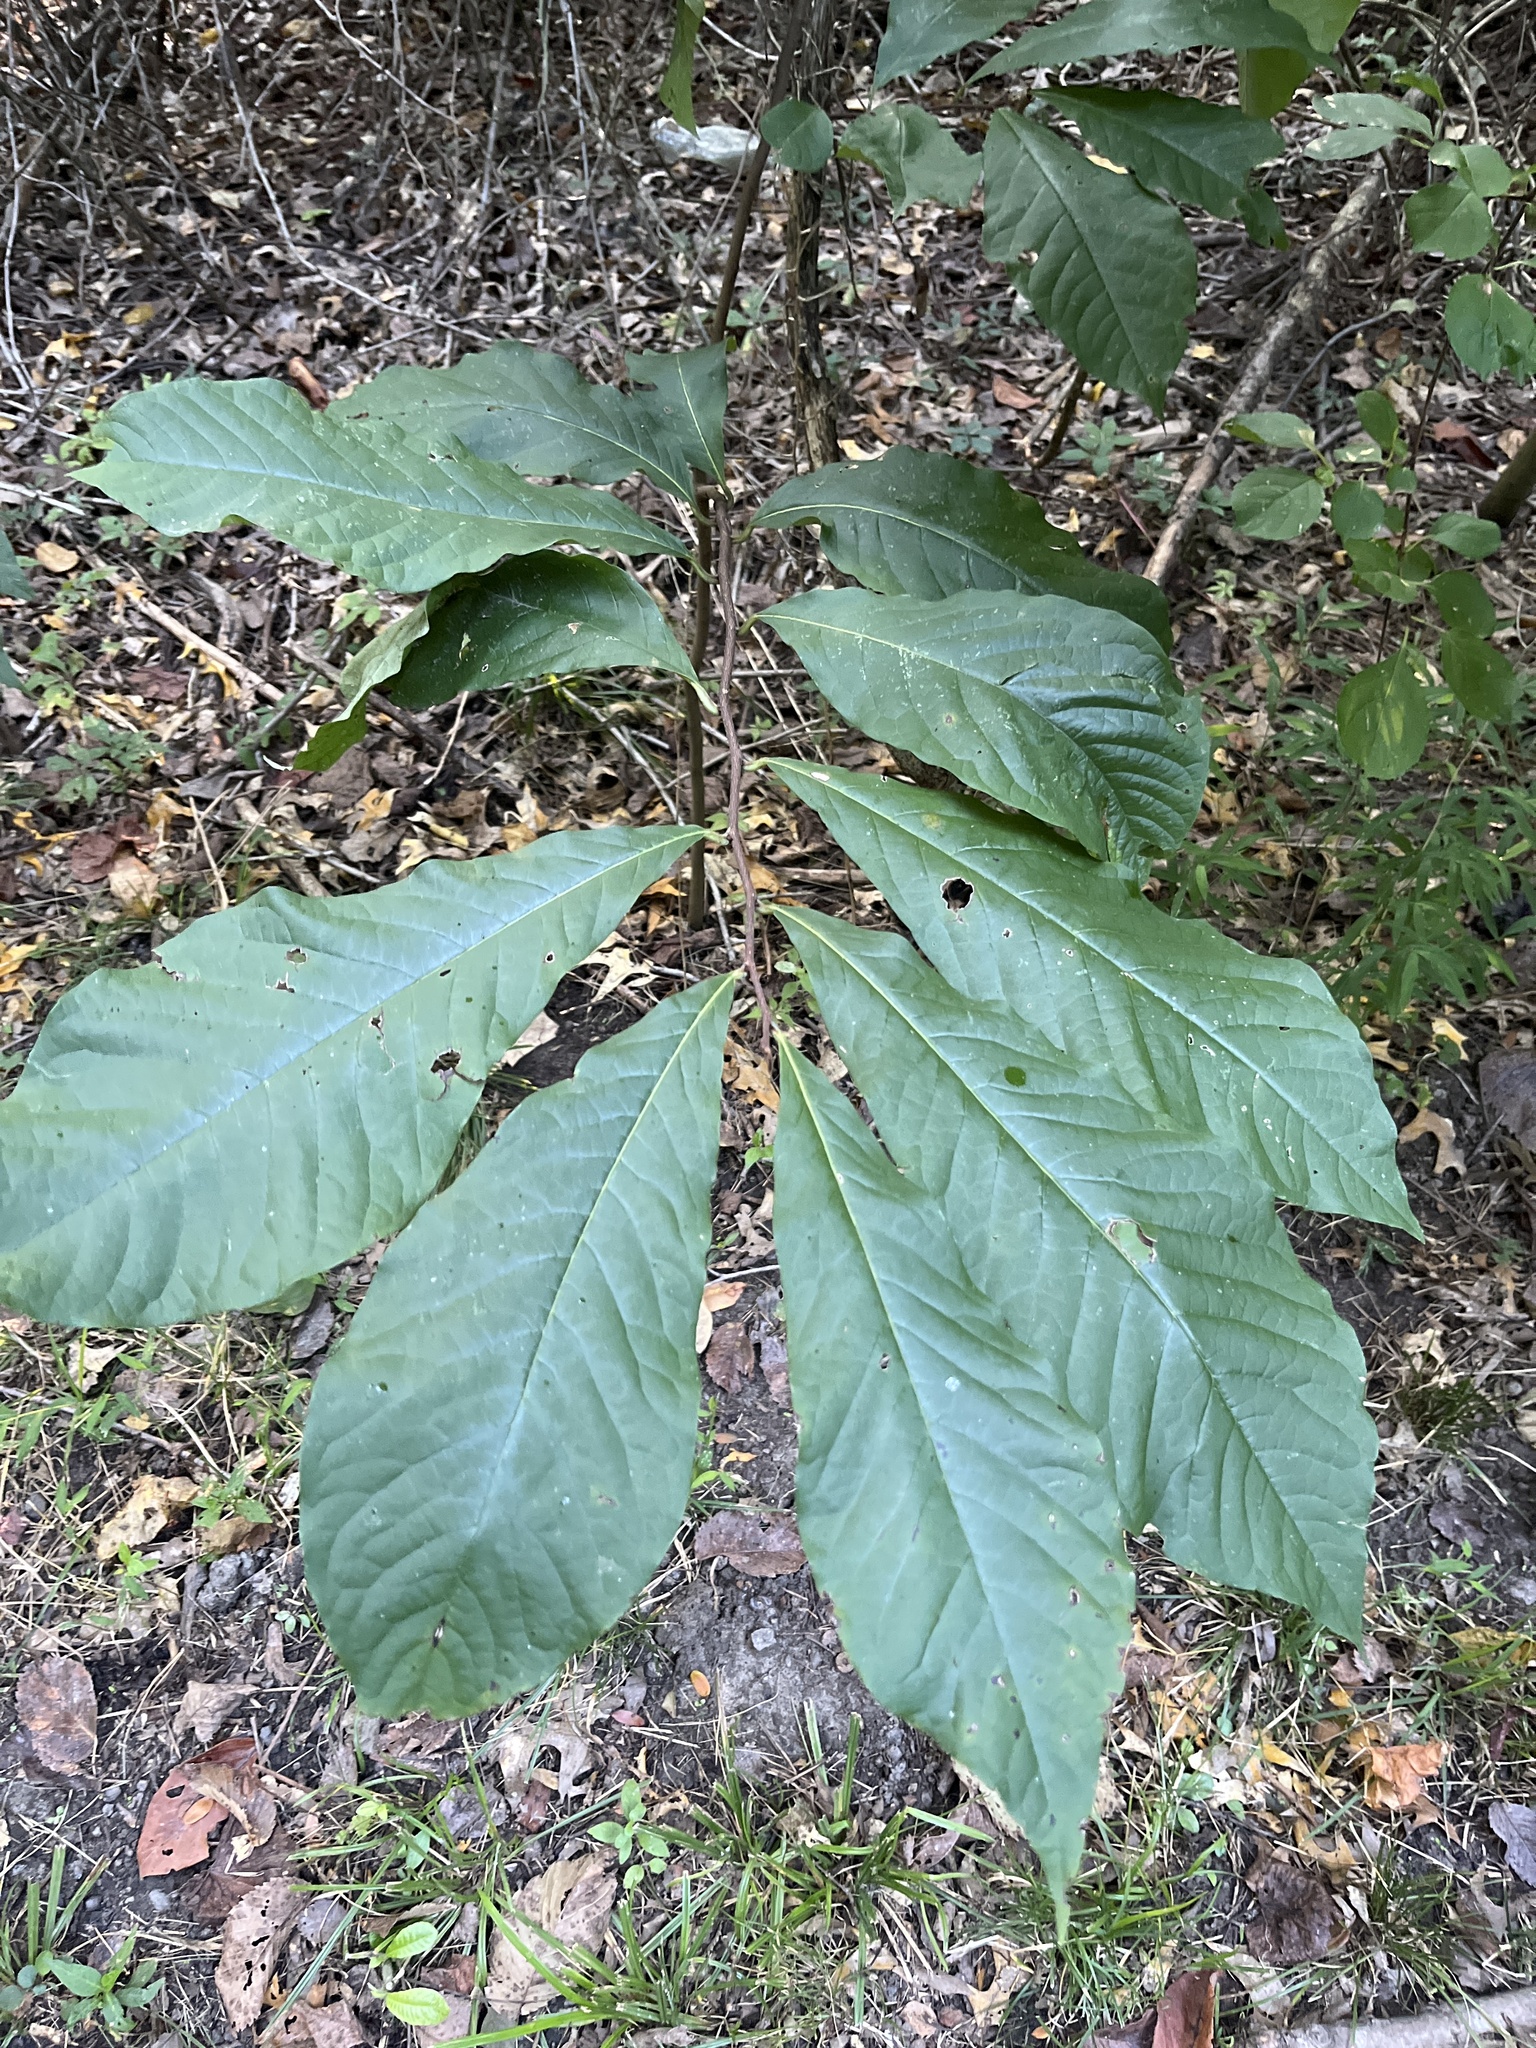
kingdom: Plantae
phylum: Tracheophyta
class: Magnoliopsida
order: Magnoliales
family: Annonaceae
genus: Asimina
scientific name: Asimina triloba
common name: Dog-banana
